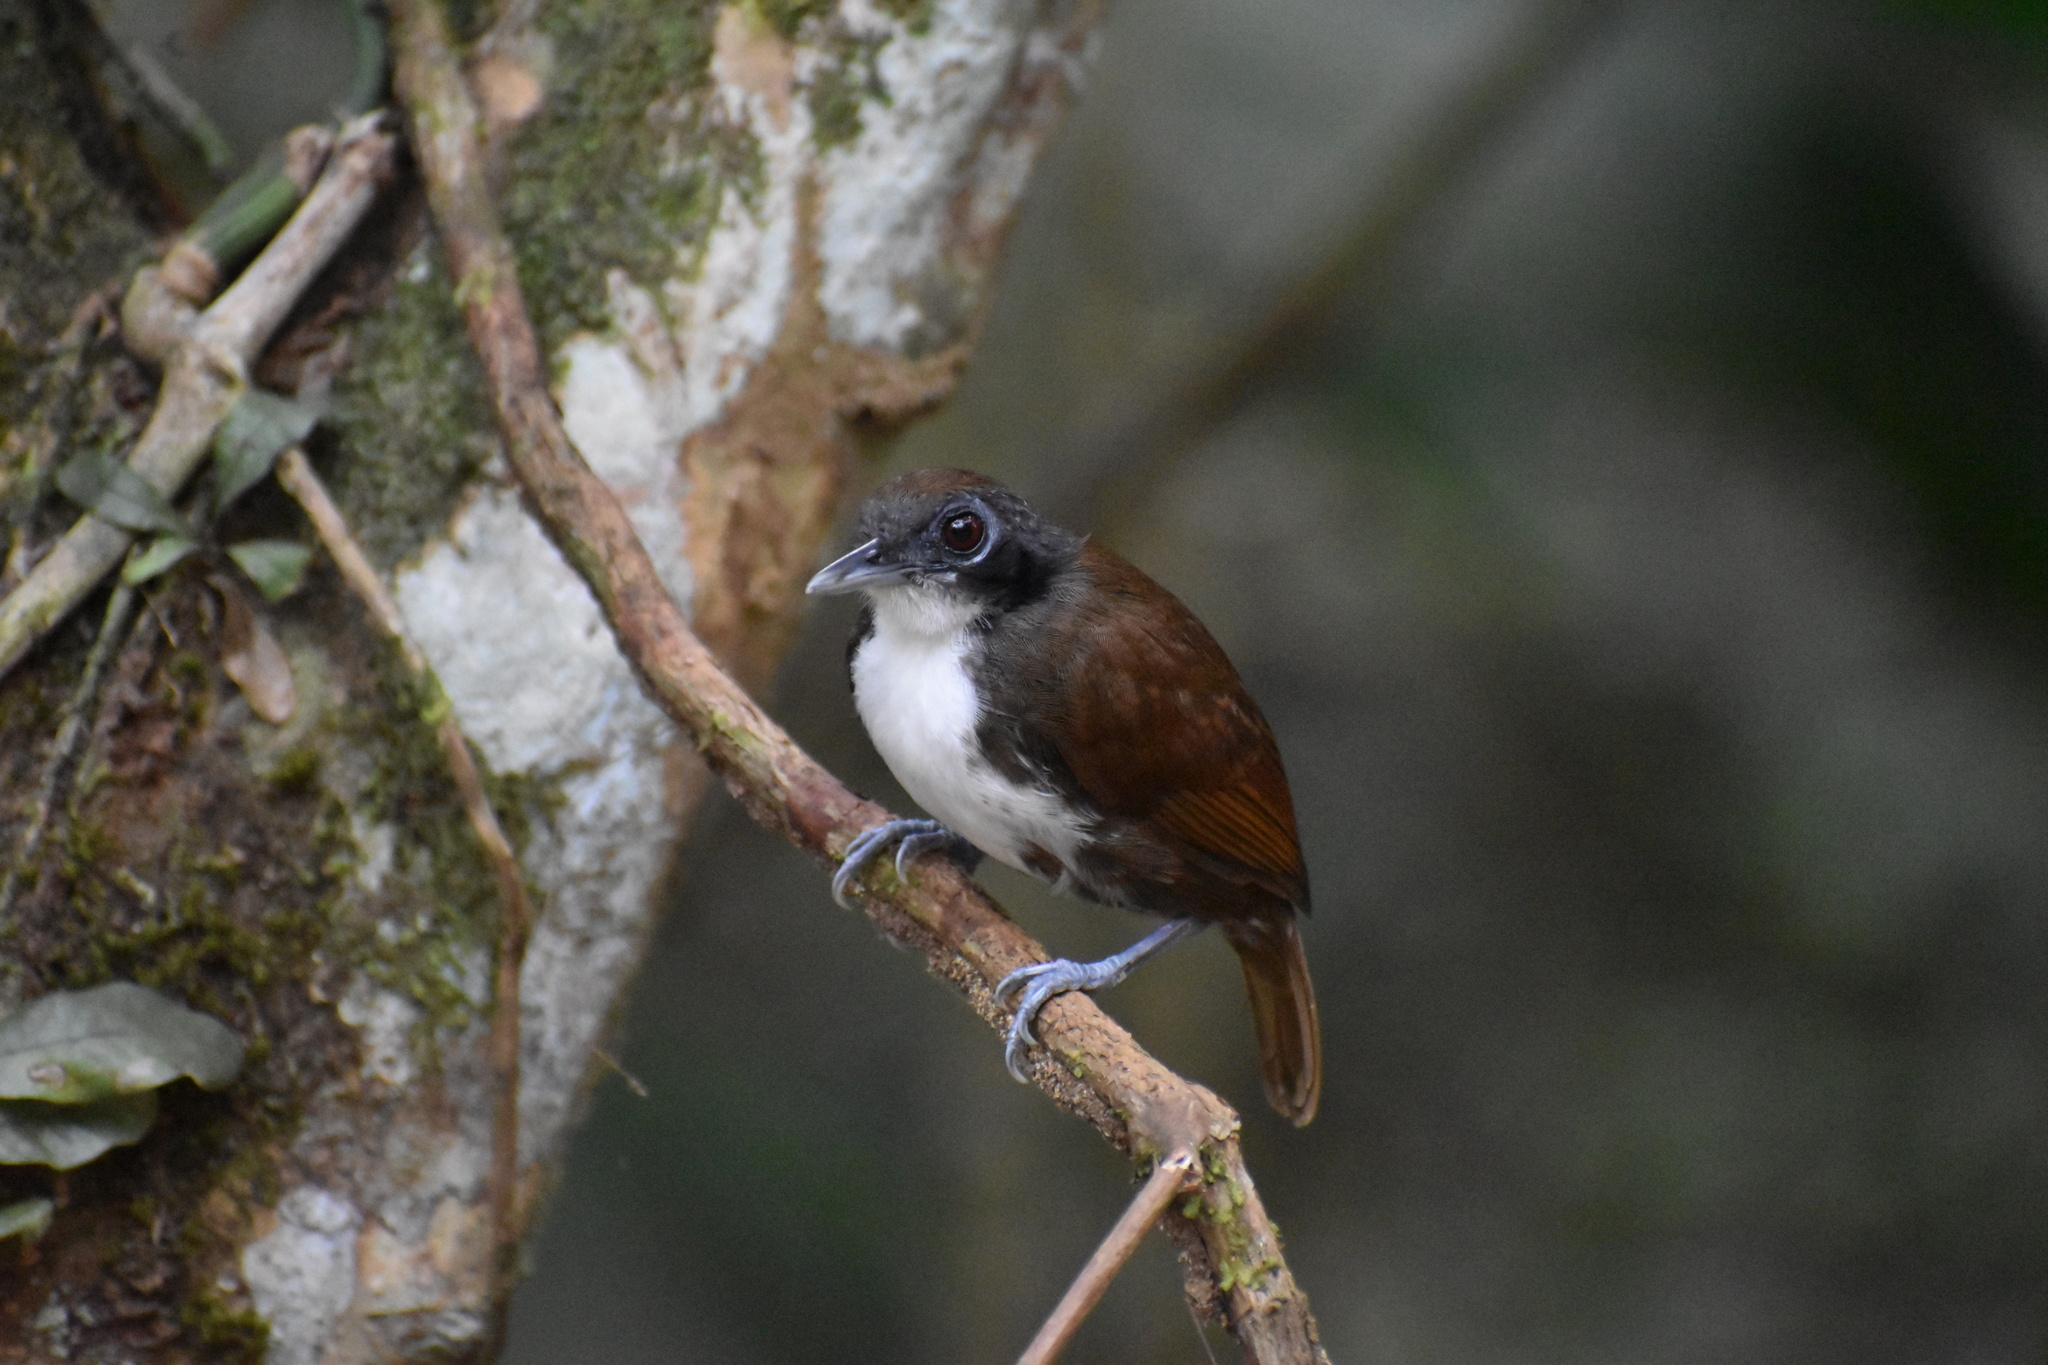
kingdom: Animalia
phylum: Chordata
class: Aves
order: Passeriformes
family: Thamnophilidae
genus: Gymnopithys
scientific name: Gymnopithys leucaspis
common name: White-cheeked antbird
